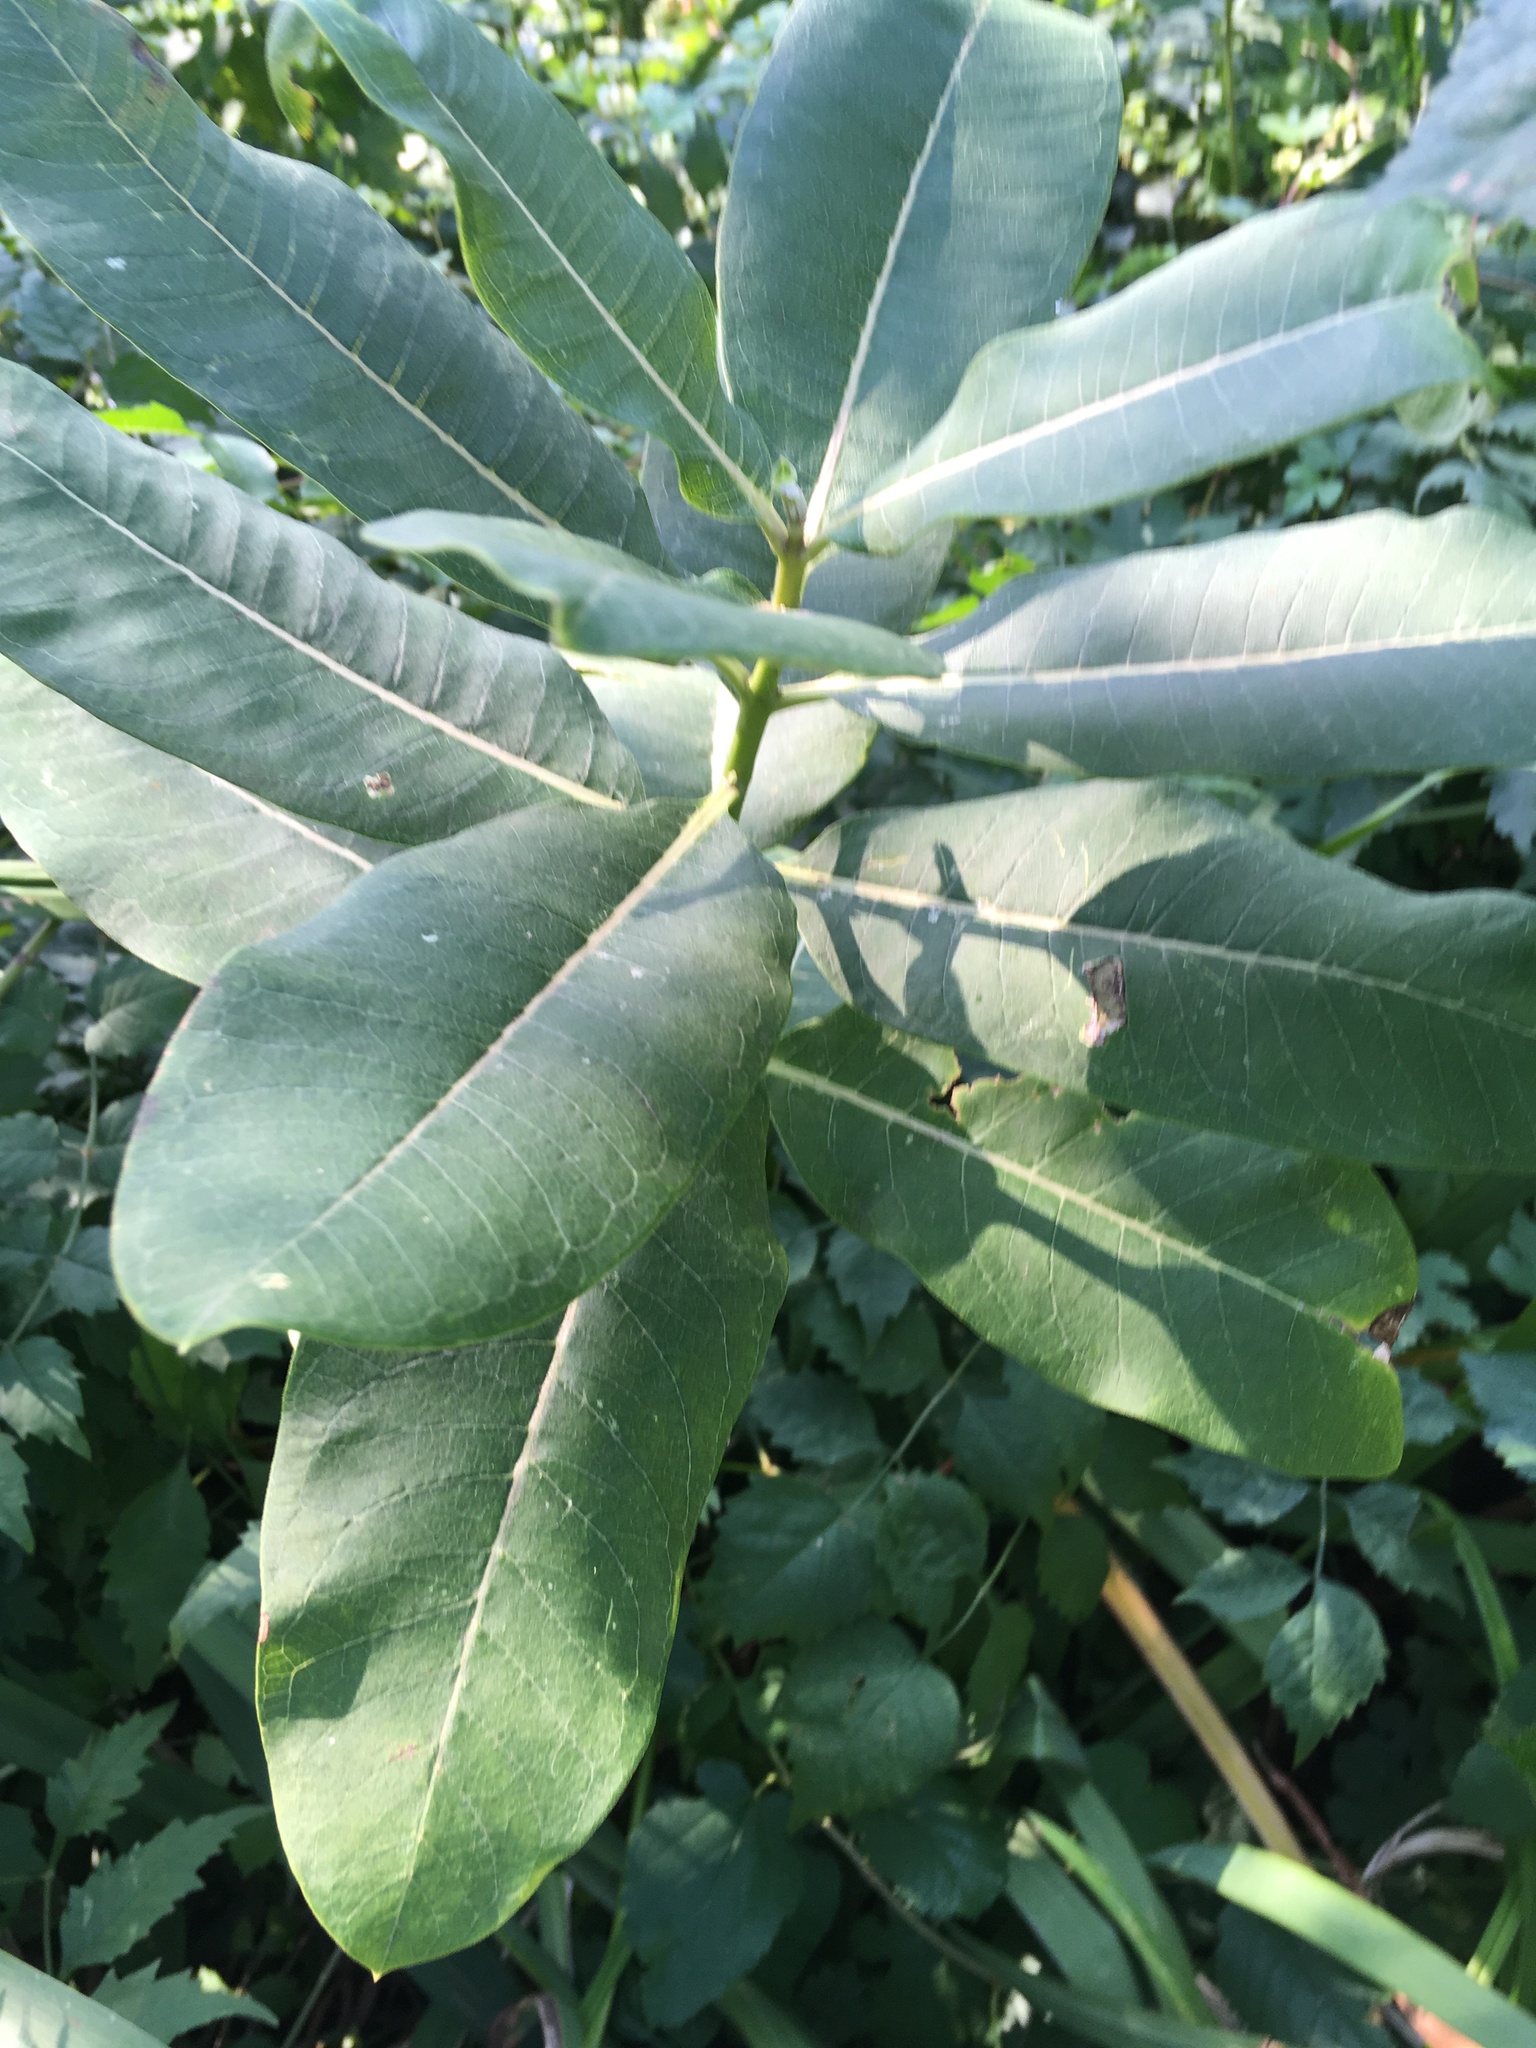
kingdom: Plantae
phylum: Tracheophyta
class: Magnoliopsida
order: Gentianales
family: Apocynaceae
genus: Asclepias
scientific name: Asclepias syriaca
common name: Common milkweed
